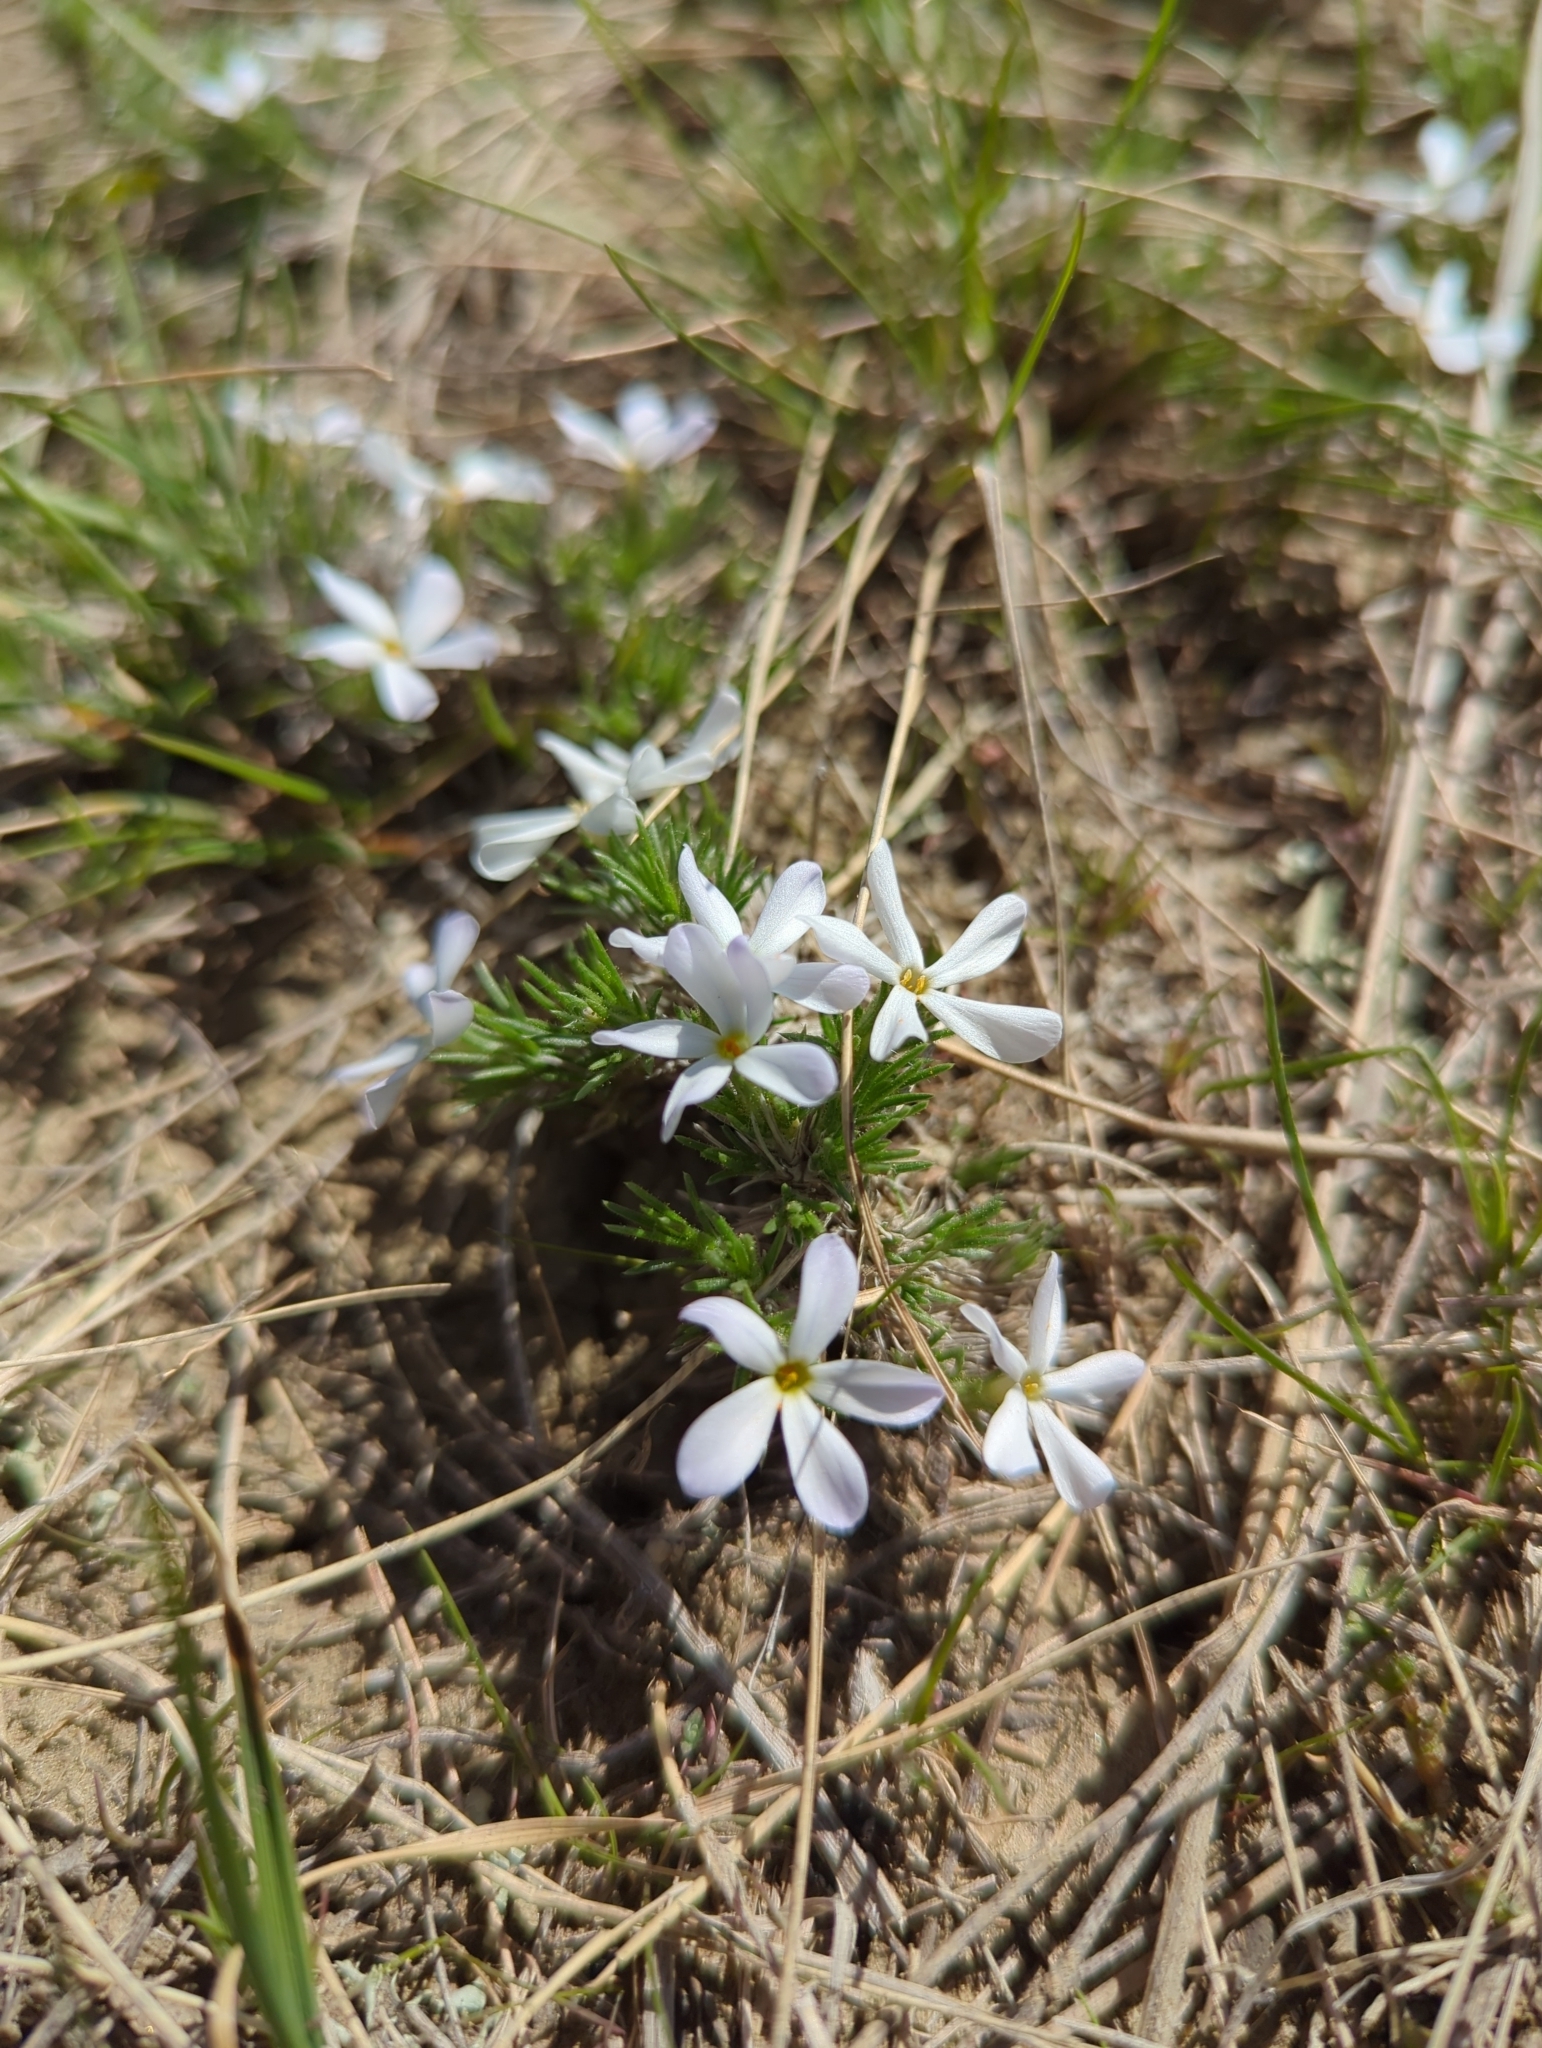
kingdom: Plantae
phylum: Tracheophyta
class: Magnoliopsida
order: Ericales
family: Polemoniaceae
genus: Phlox
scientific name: Phlox hoodii
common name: Moss phlox
